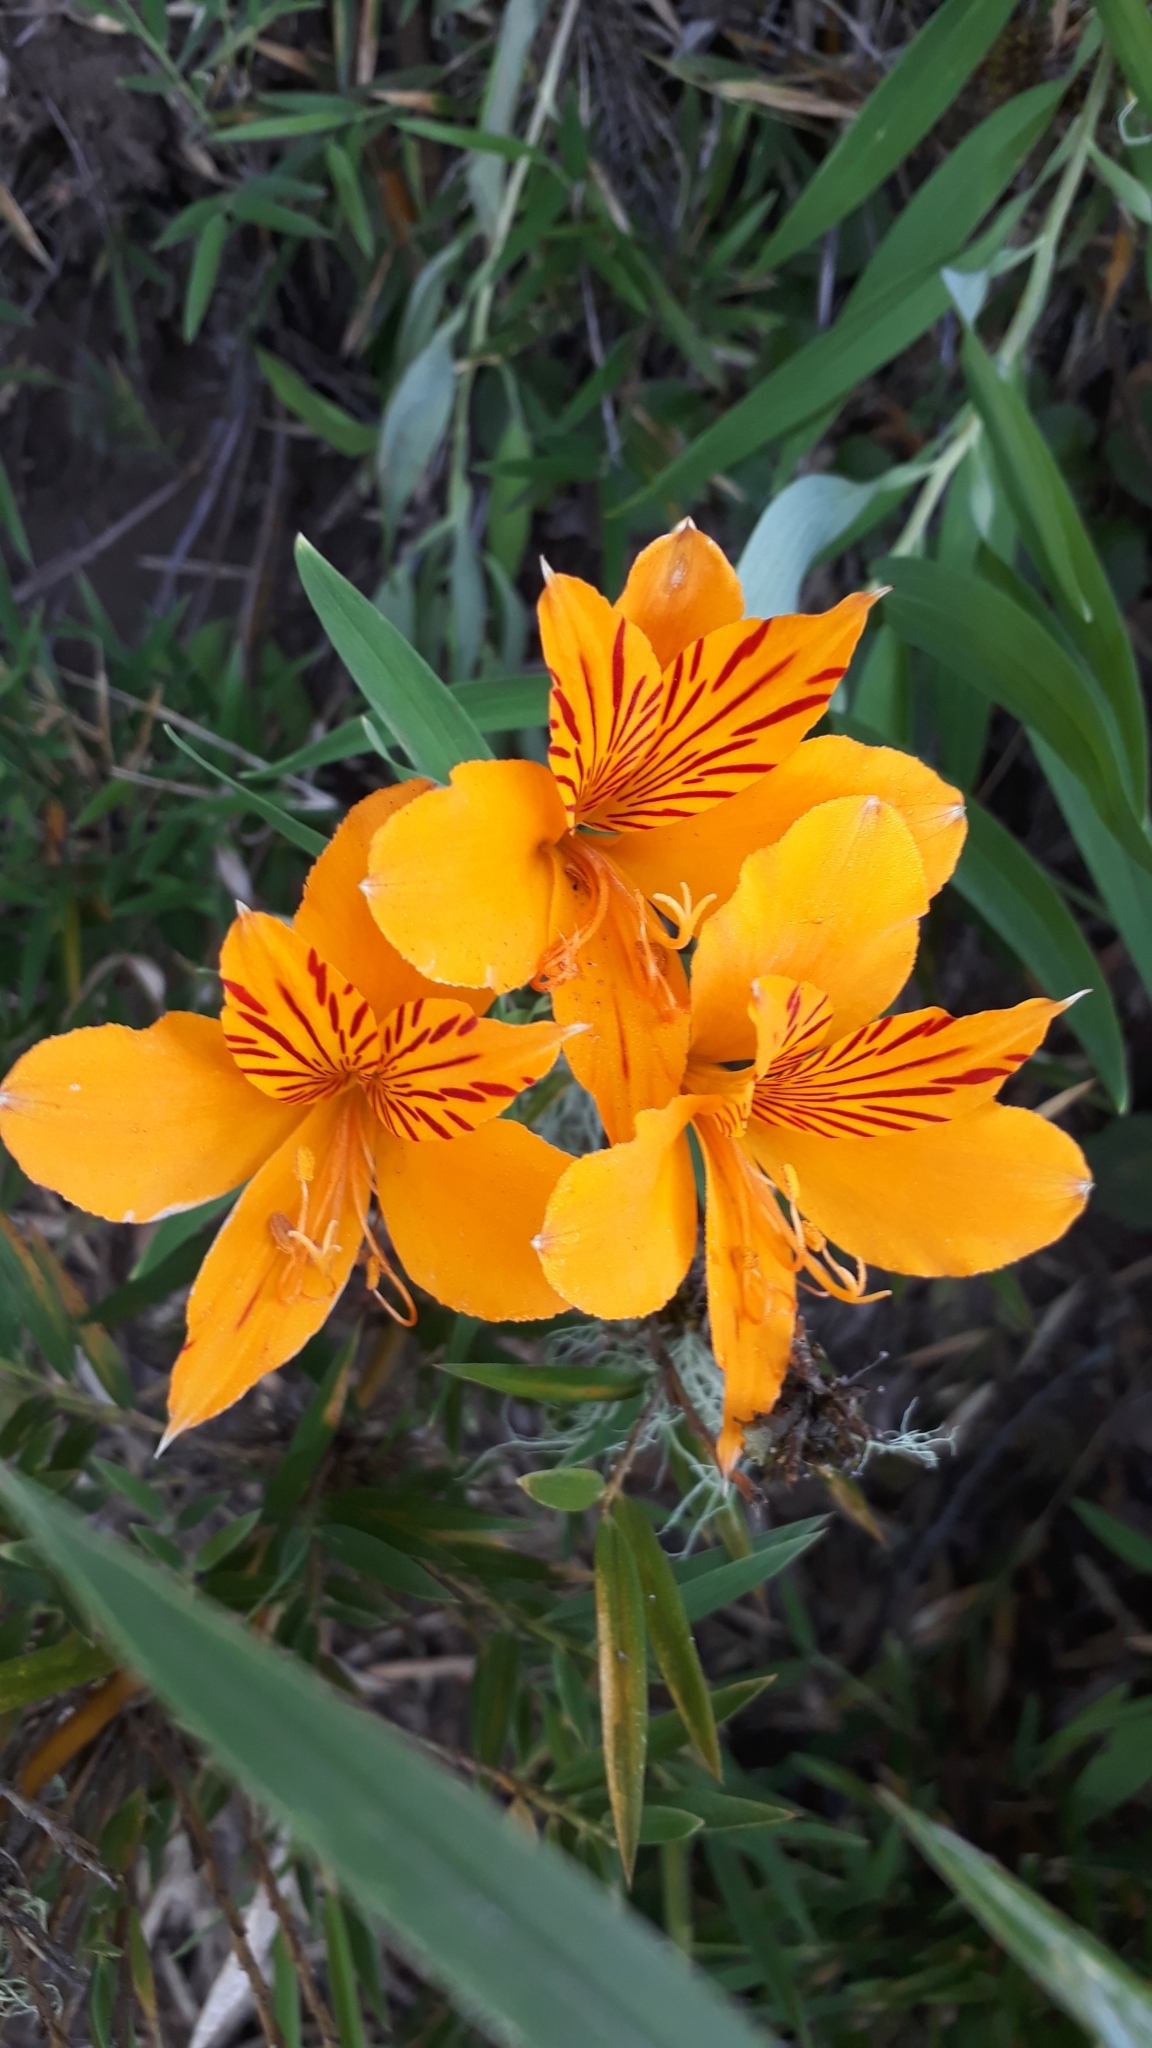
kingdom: Plantae
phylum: Tracheophyta
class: Liliopsida
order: Liliales
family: Alstroemeriaceae
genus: Alstroemeria
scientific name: Alstroemeria aurea
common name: Peruvian lily
